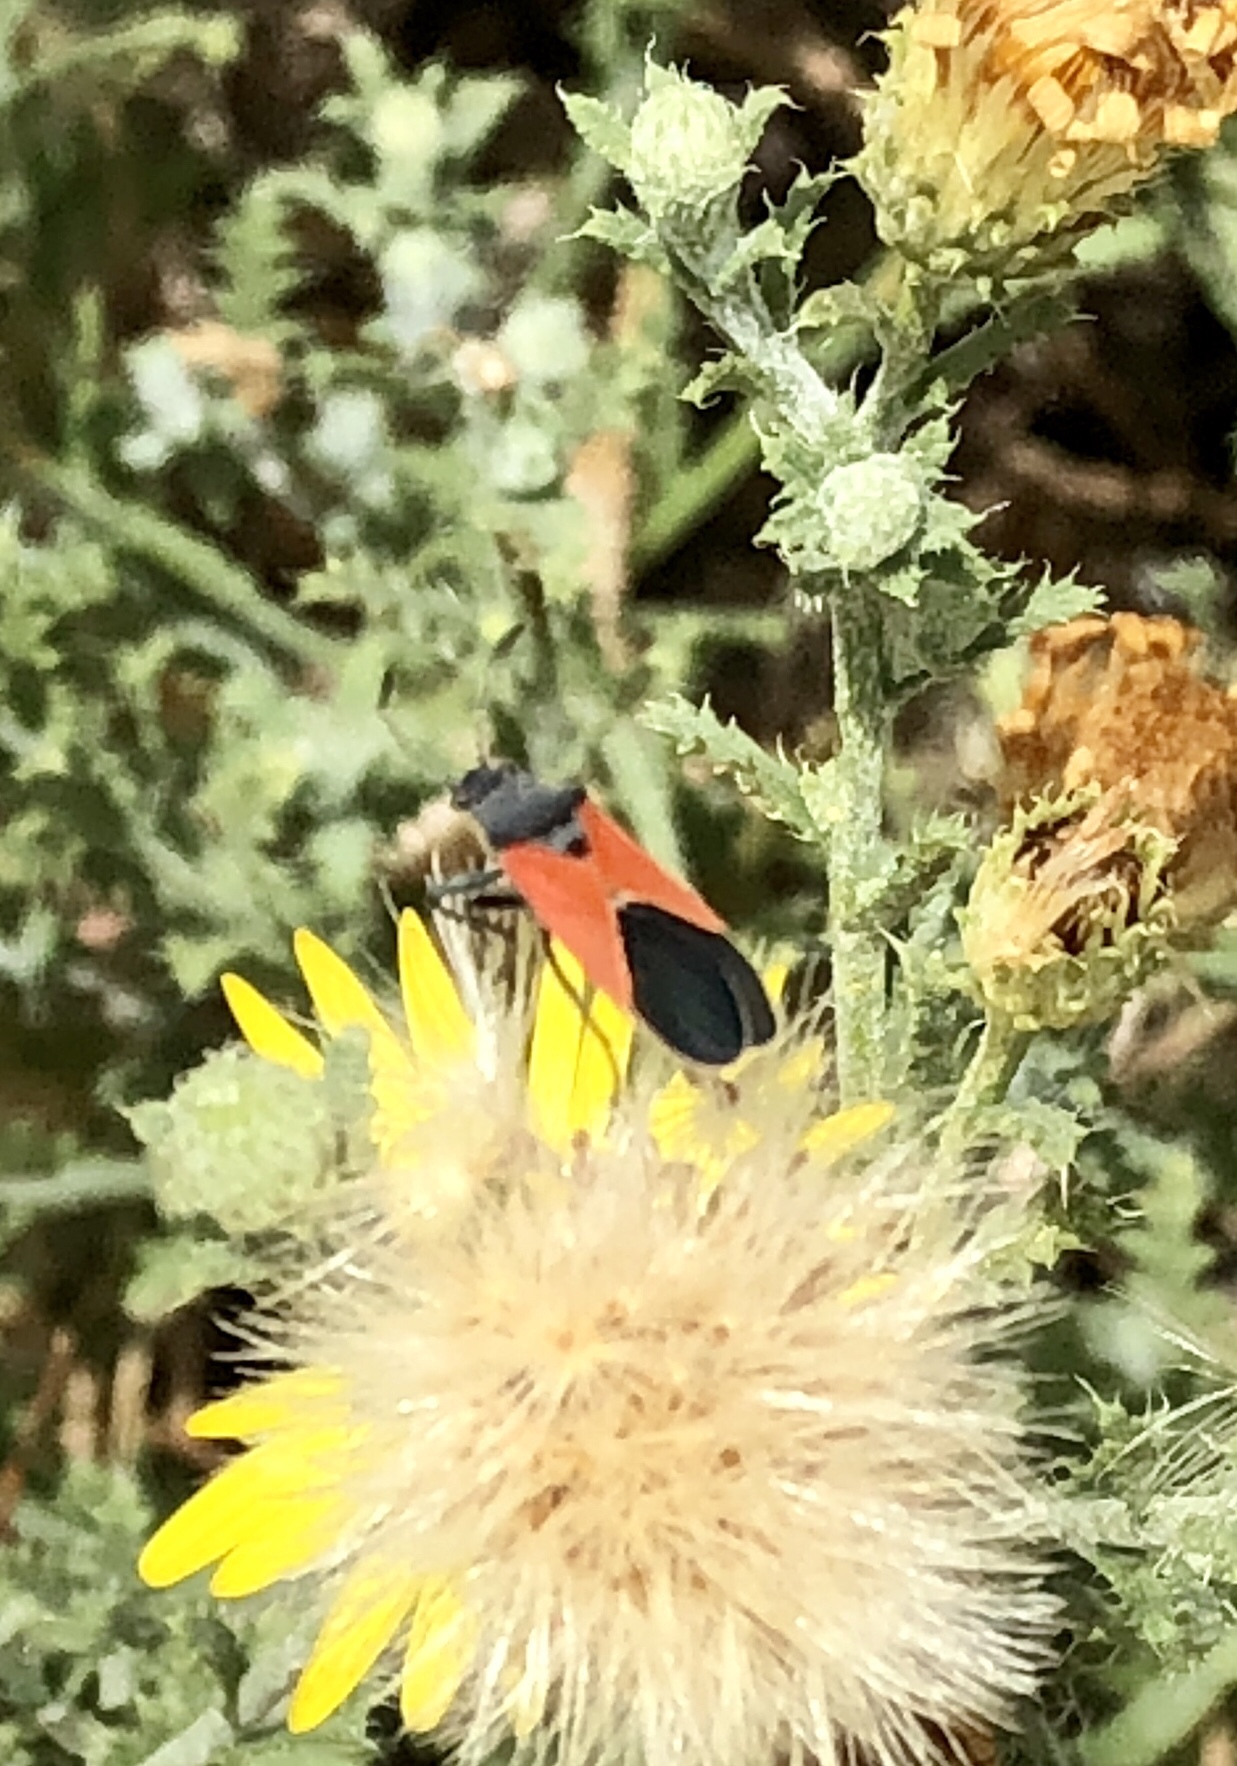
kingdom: Animalia
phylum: Arthropoda
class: Insecta
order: Hemiptera
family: Lygaeidae
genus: Melanopleurus
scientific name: Melanopleurus belfragei
